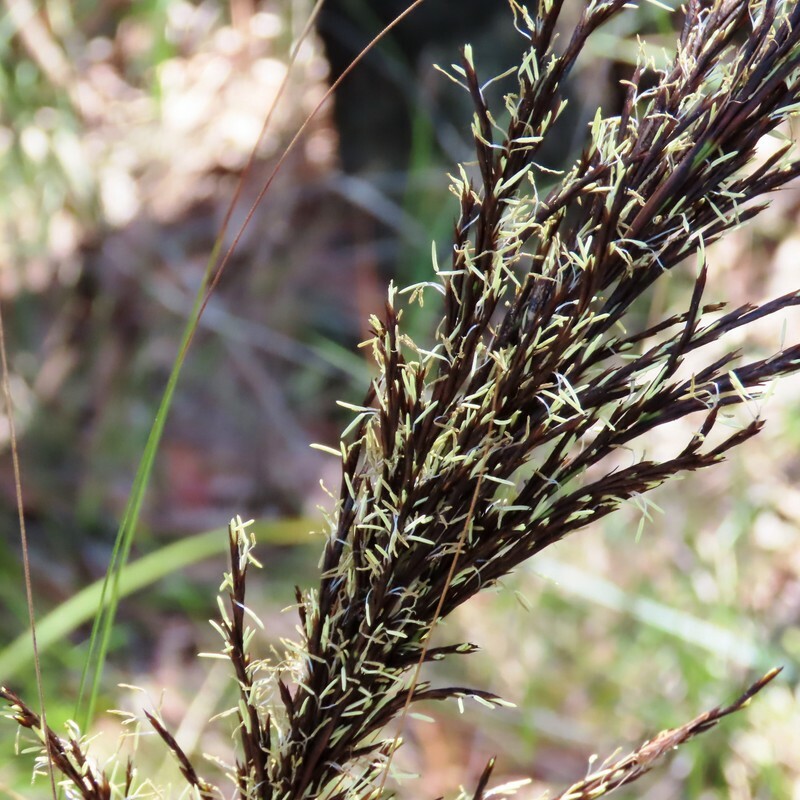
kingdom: Plantae
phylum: Tracheophyta
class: Liliopsida
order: Poales
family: Cyperaceae
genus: Gahnia
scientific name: Gahnia radula
